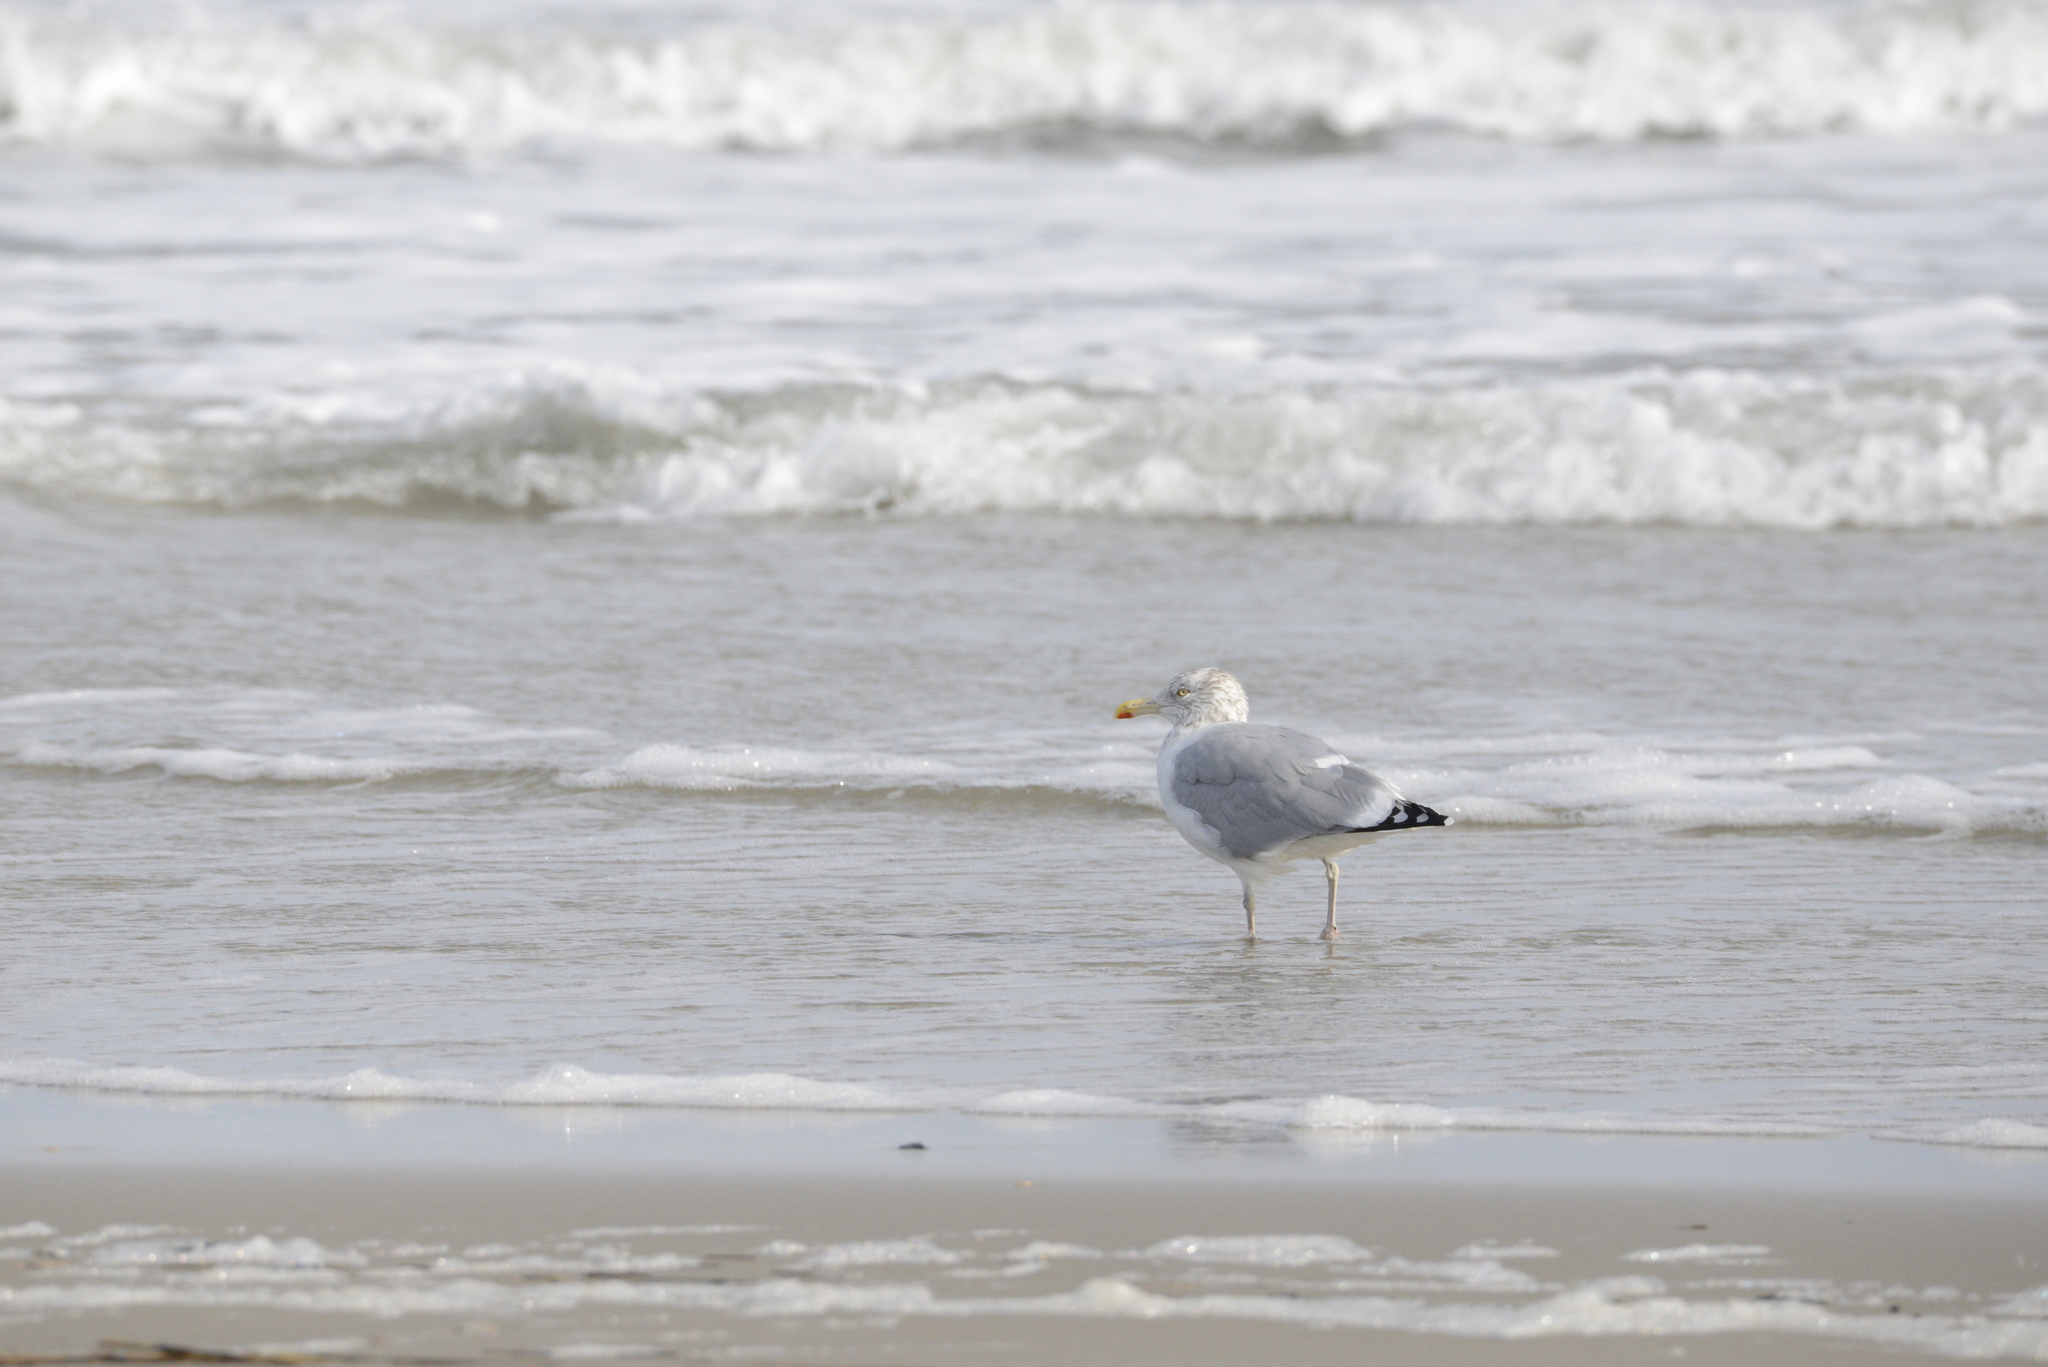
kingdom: Animalia
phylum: Chordata
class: Aves
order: Charadriiformes
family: Laridae
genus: Larus
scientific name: Larus argentatus
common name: Herring gull
